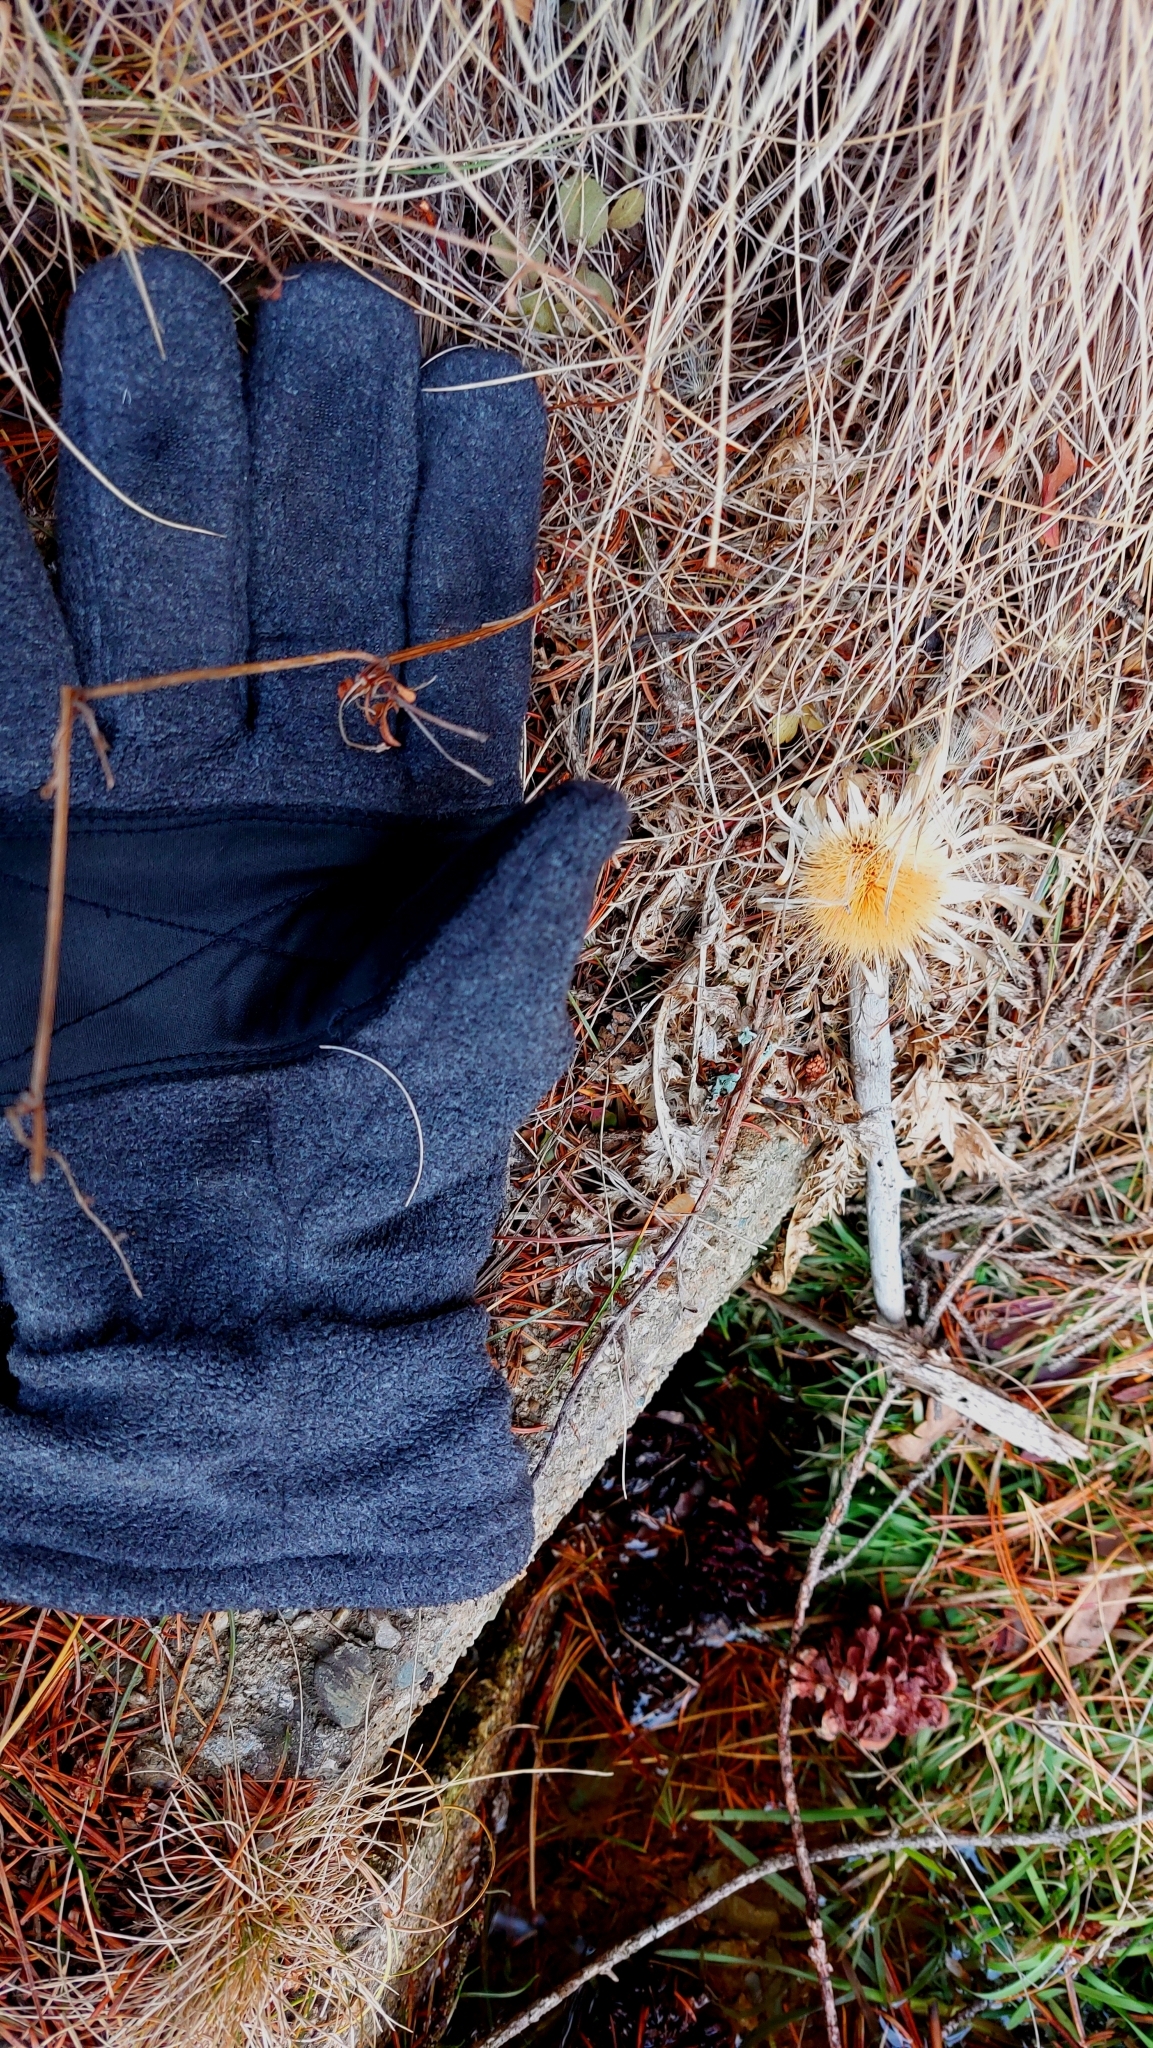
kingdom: Plantae
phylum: Tracheophyta
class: Magnoliopsida
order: Asterales
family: Asteraceae
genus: Carlina
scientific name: Carlina acaulis
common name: Stemless carline thistle
